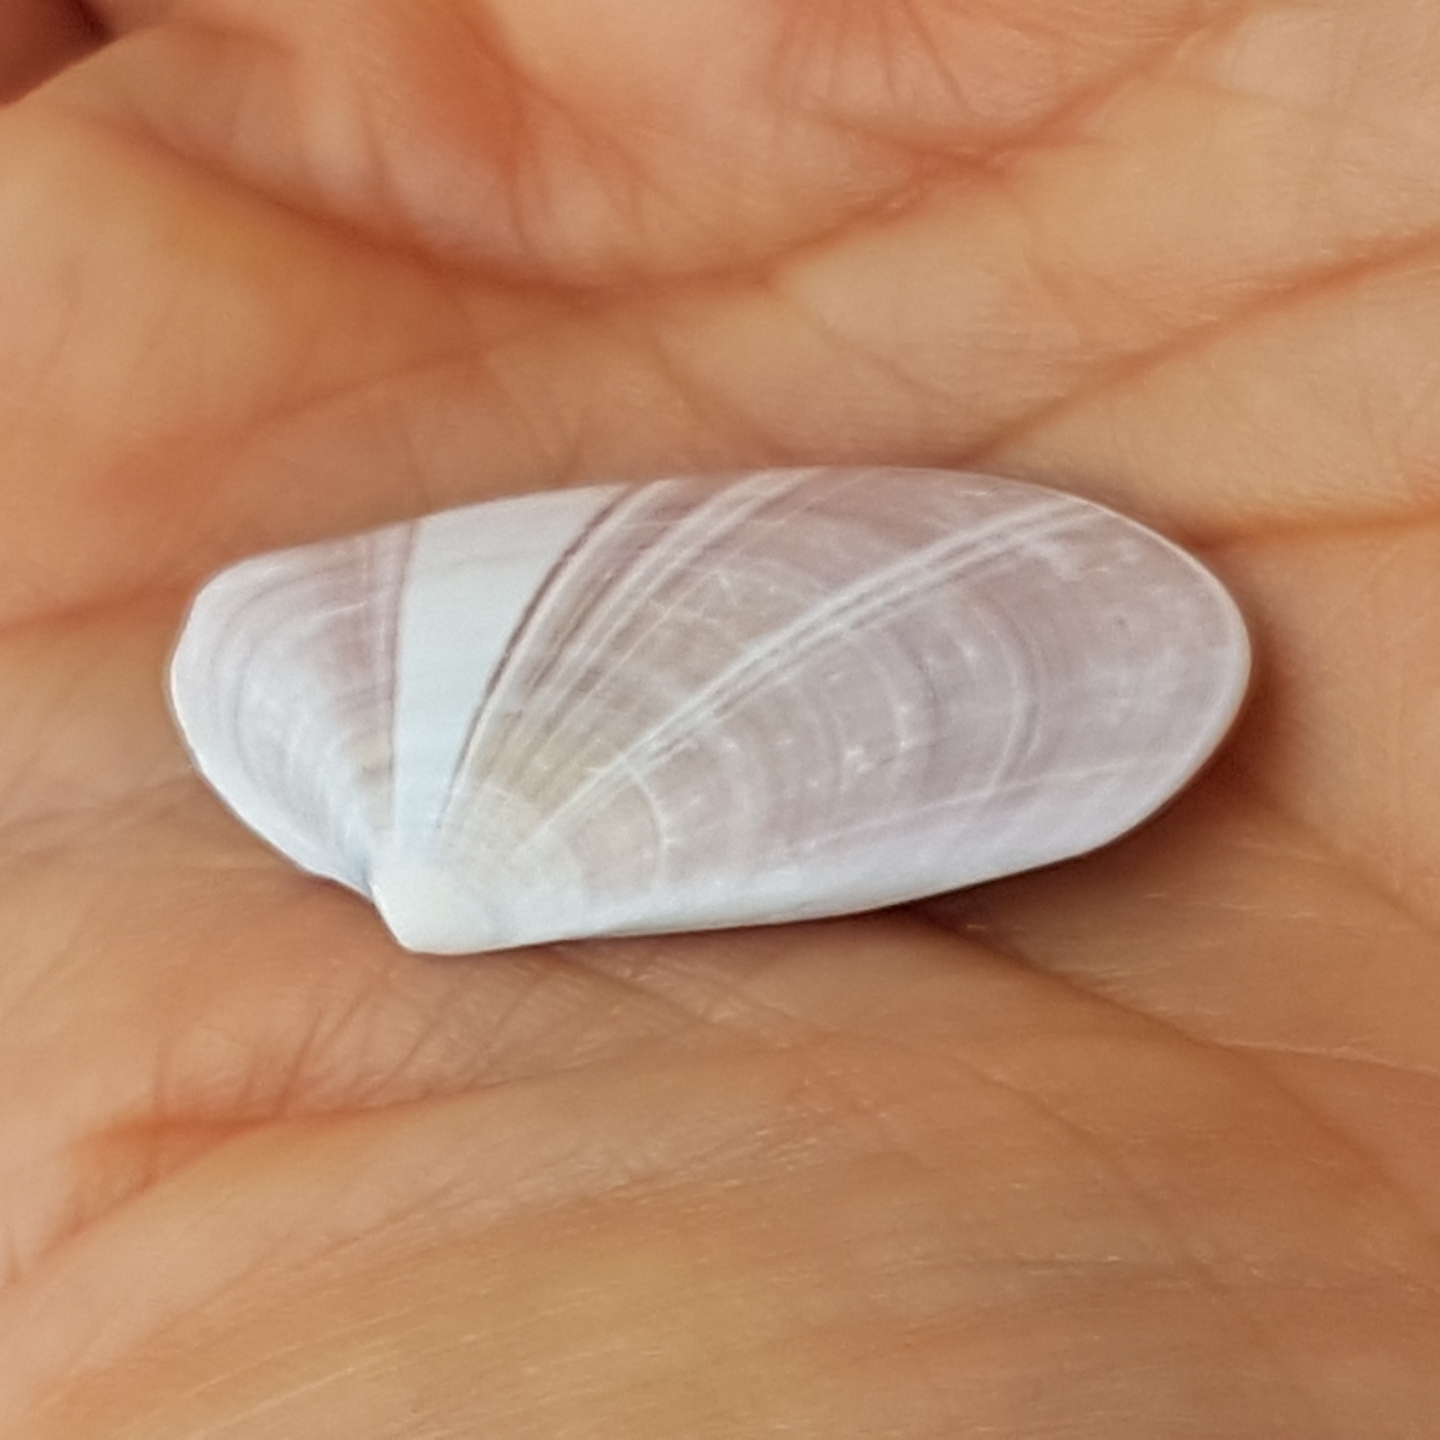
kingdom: Animalia
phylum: Mollusca
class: Bivalvia
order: Cardiida
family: Donacidae
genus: Donax
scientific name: Donax trunculus
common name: Truncate donax
